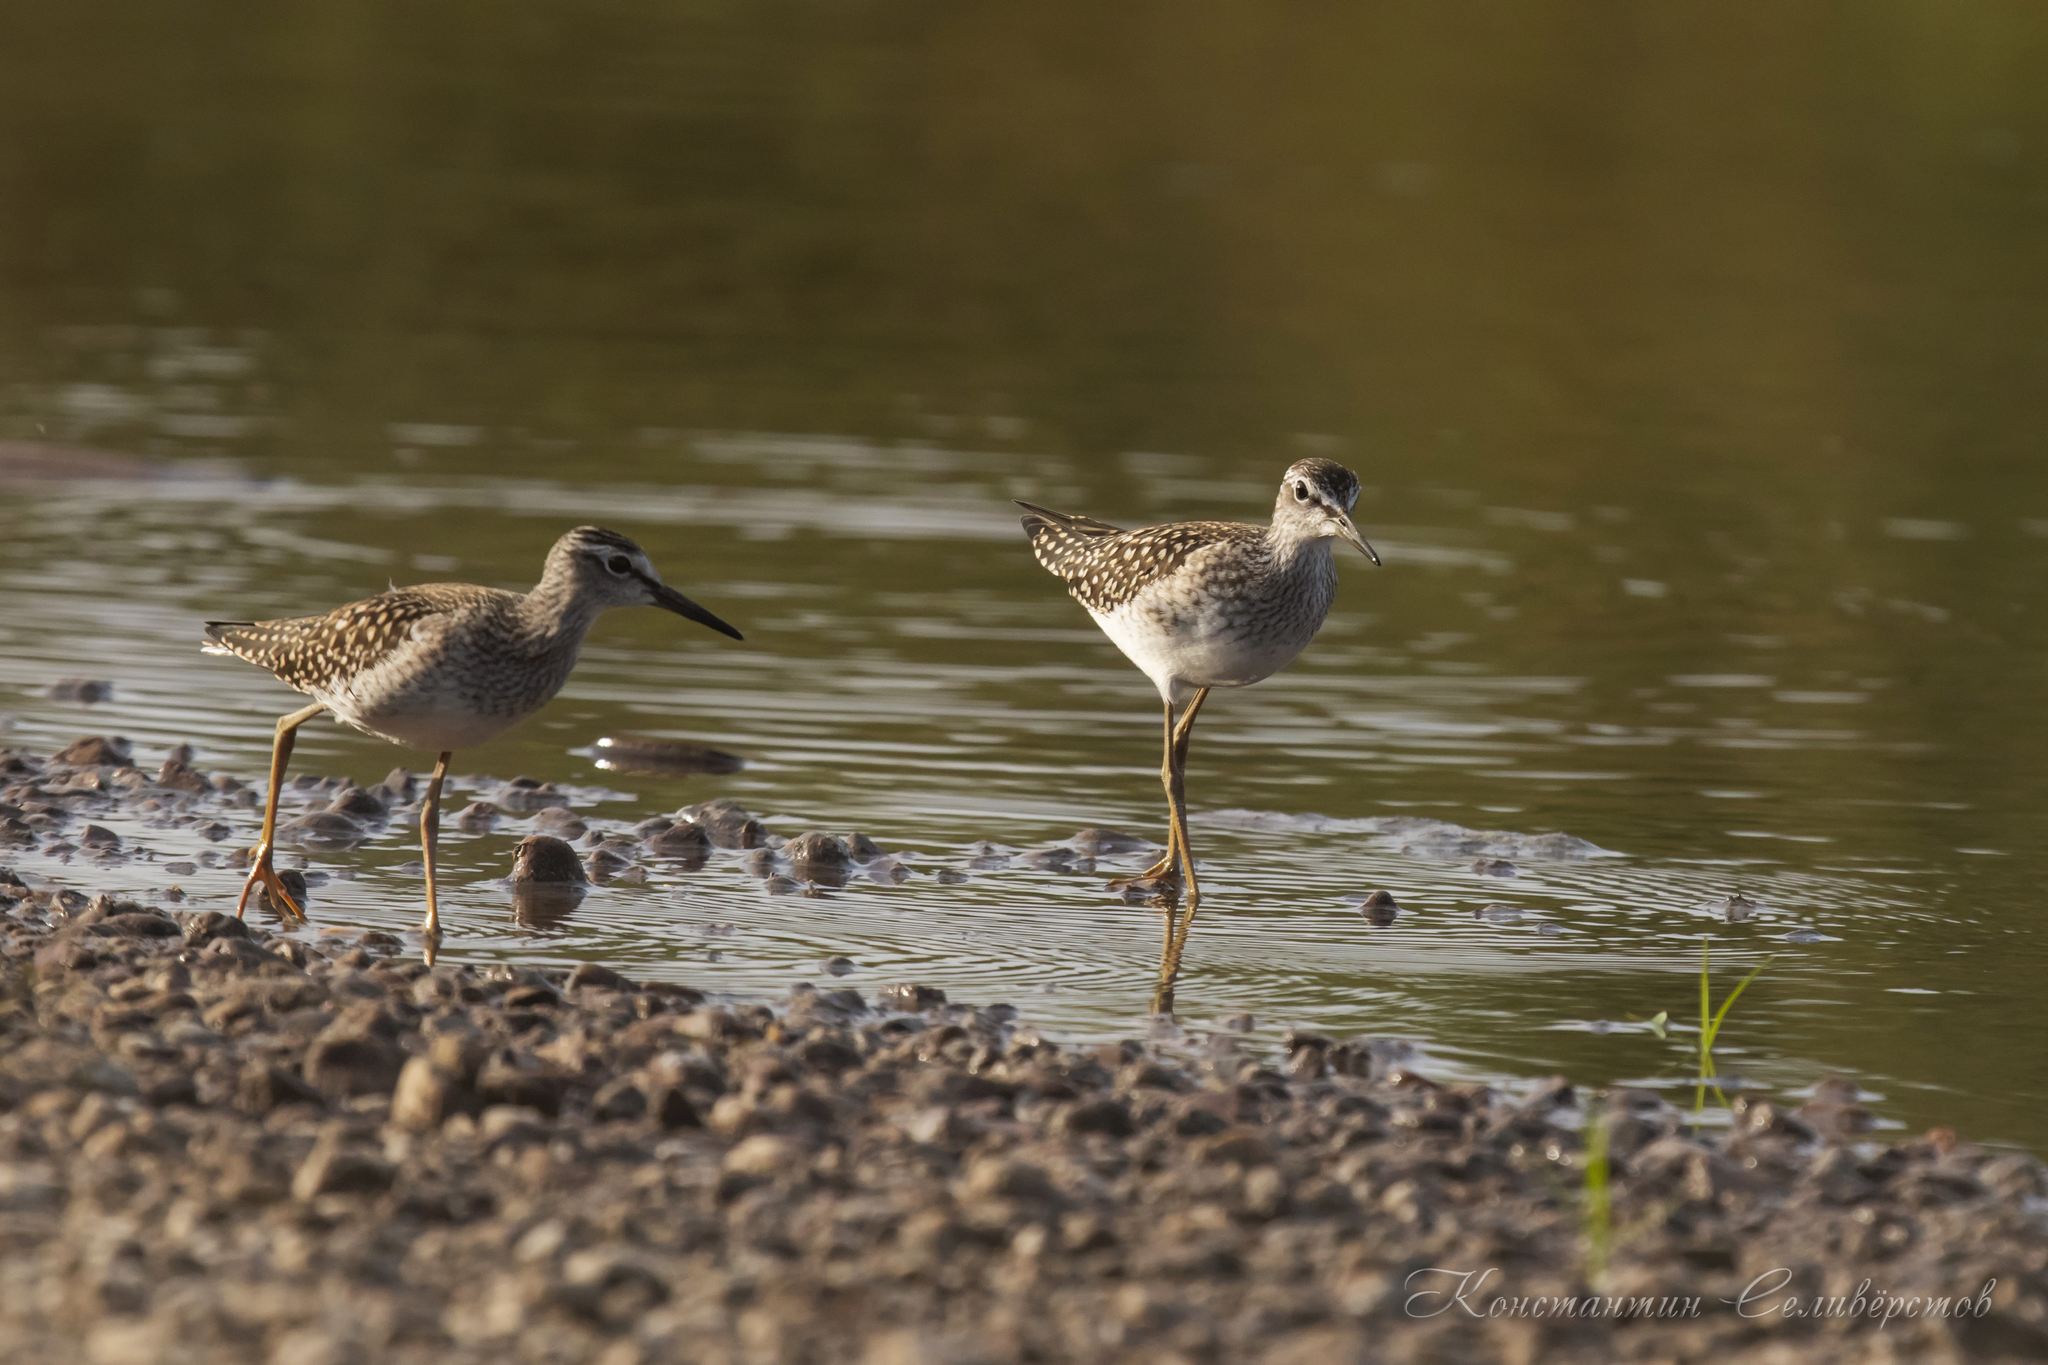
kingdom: Animalia
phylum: Chordata
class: Aves
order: Charadriiformes
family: Scolopacidae
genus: Tringa
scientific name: Tringa glareola
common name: Wood sandpiper
